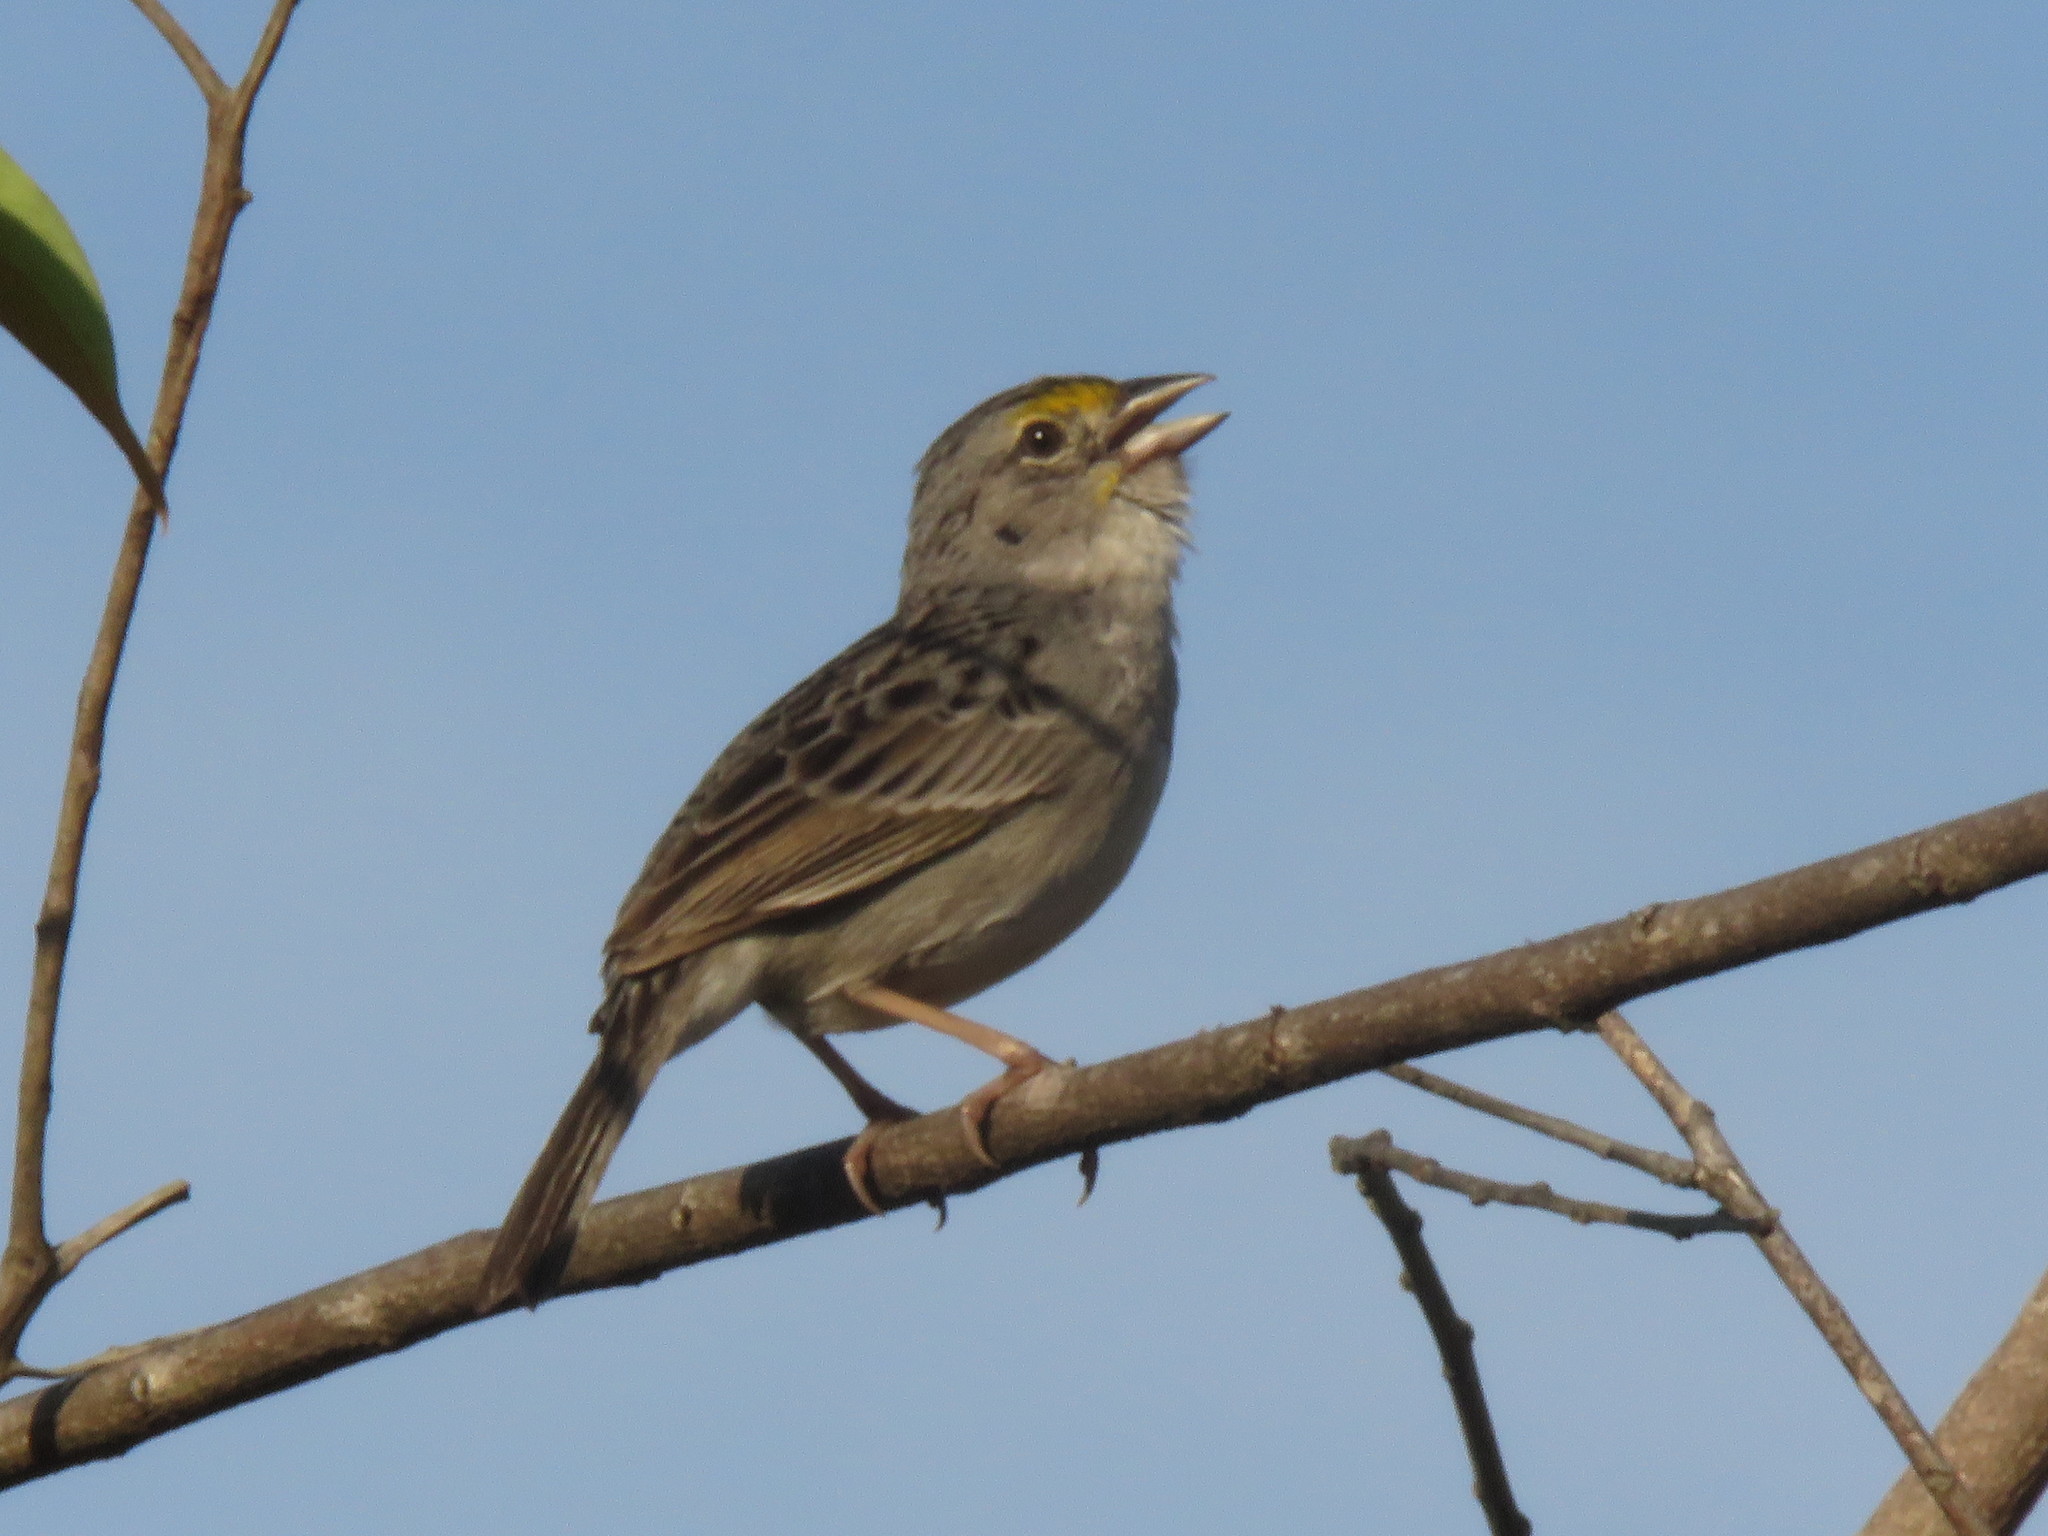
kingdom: Animalia
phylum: Chordata
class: Aves
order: Passeriformes
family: Passerellidae
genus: Ammodramus
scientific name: Ammodramus humeralis
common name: Grassland sparrow
